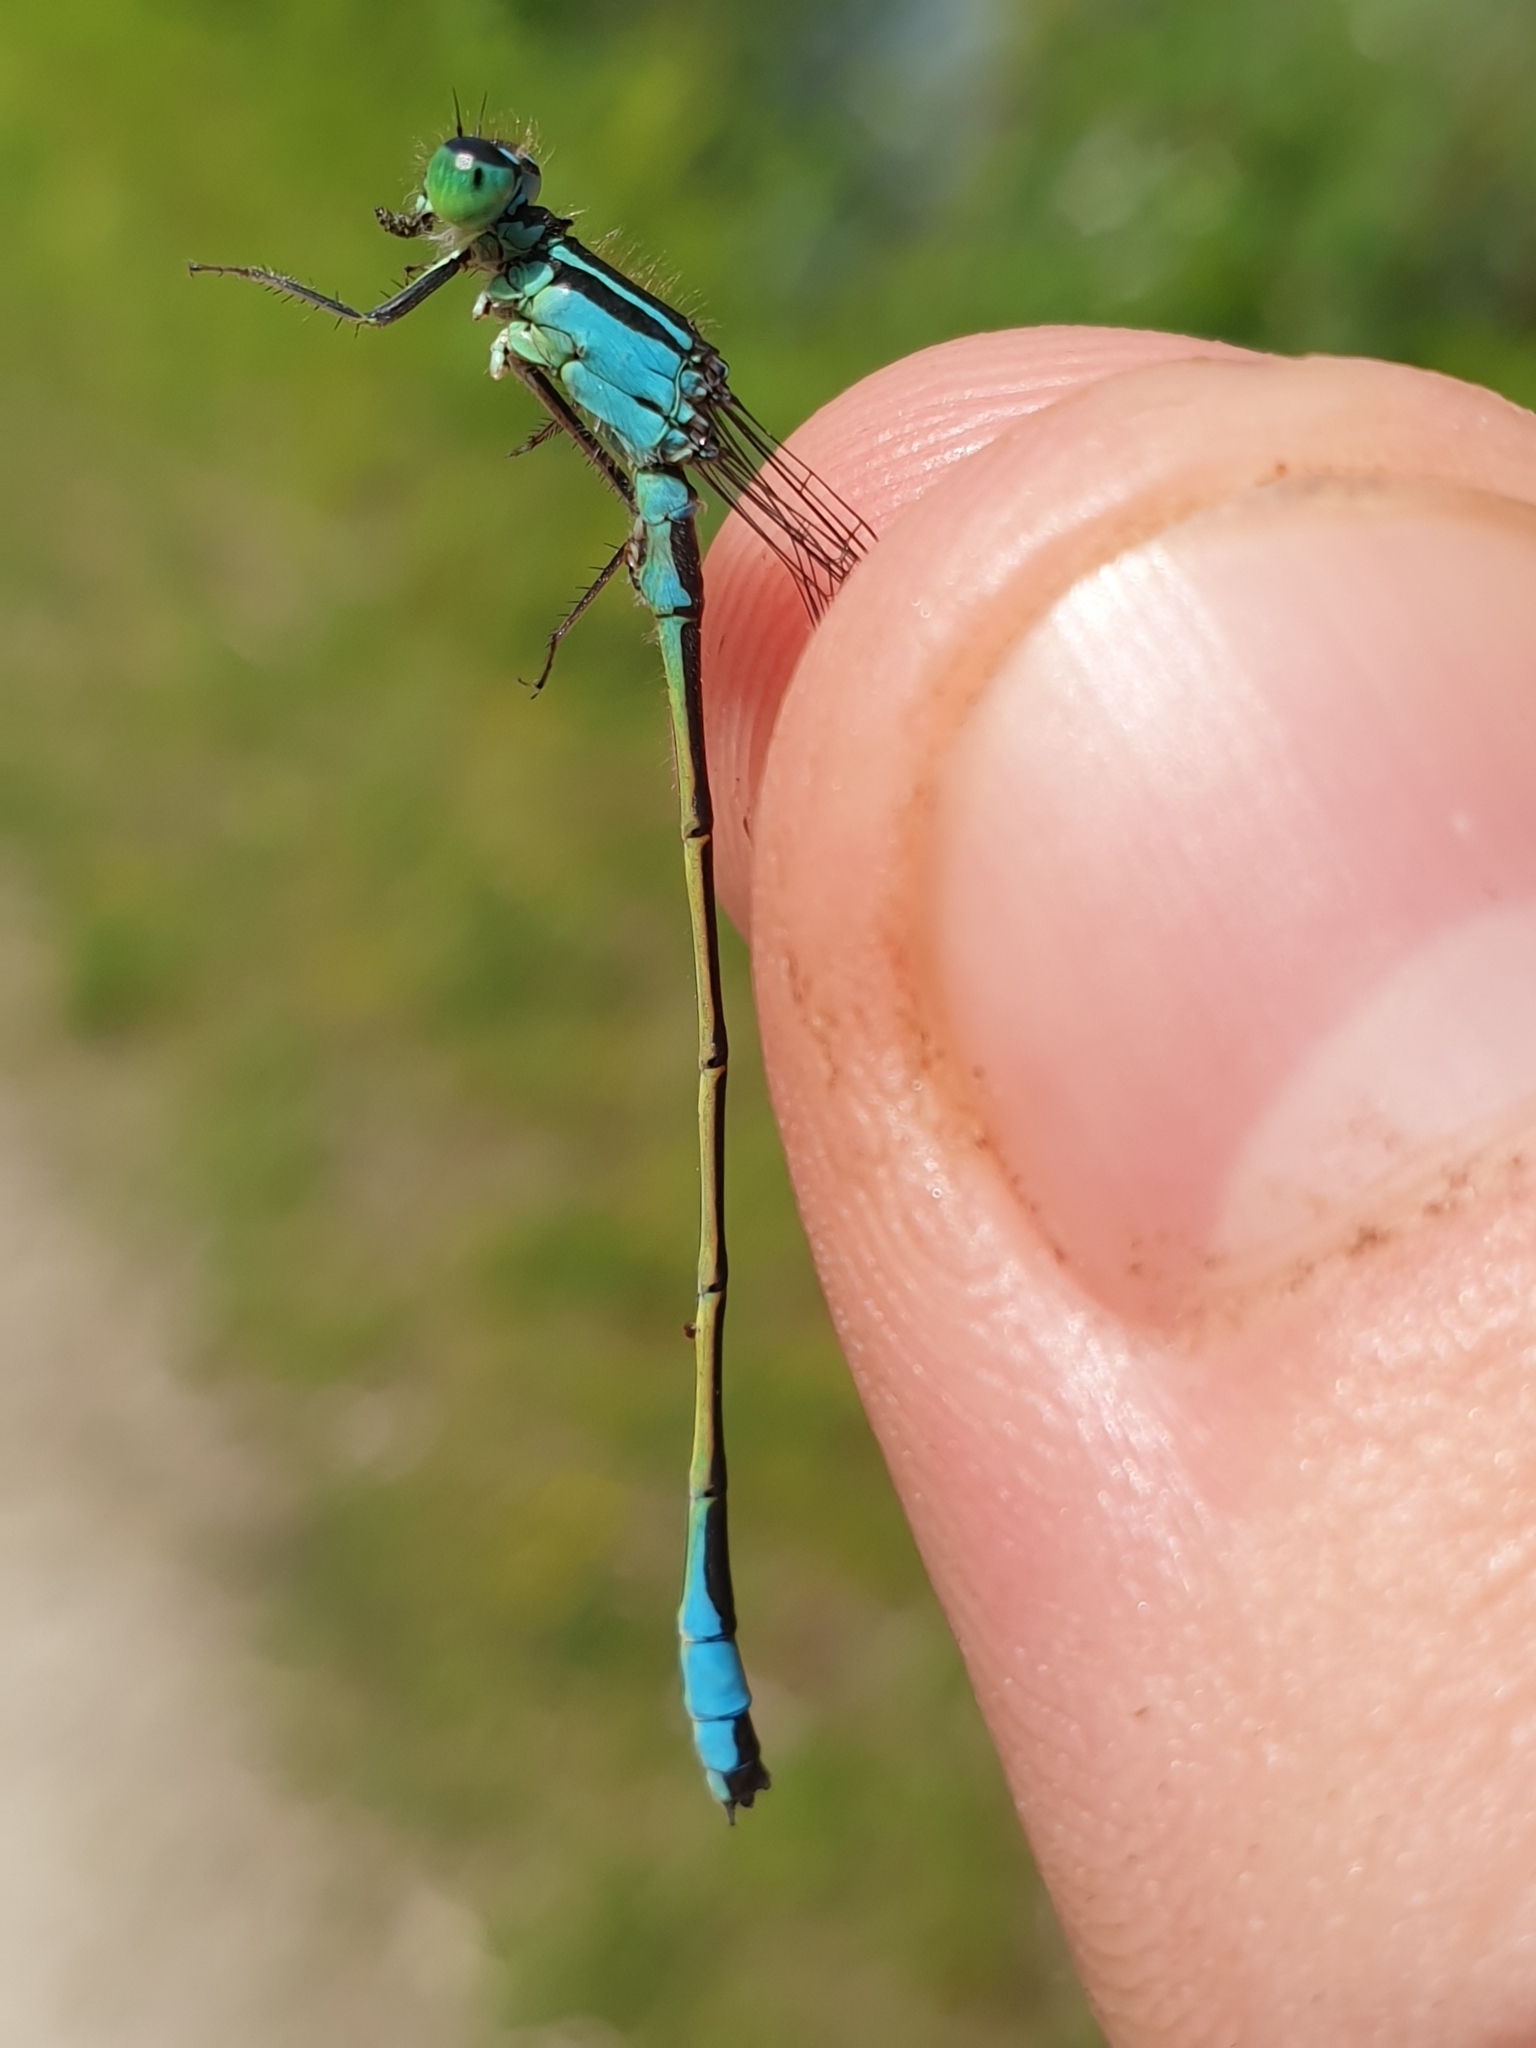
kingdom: Animalia
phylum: Arthropoda
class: Insecta
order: Odonata
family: Coenagrionidae
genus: Ischnura
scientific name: Ischnura elegans
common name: Blue-tailed damselfly
